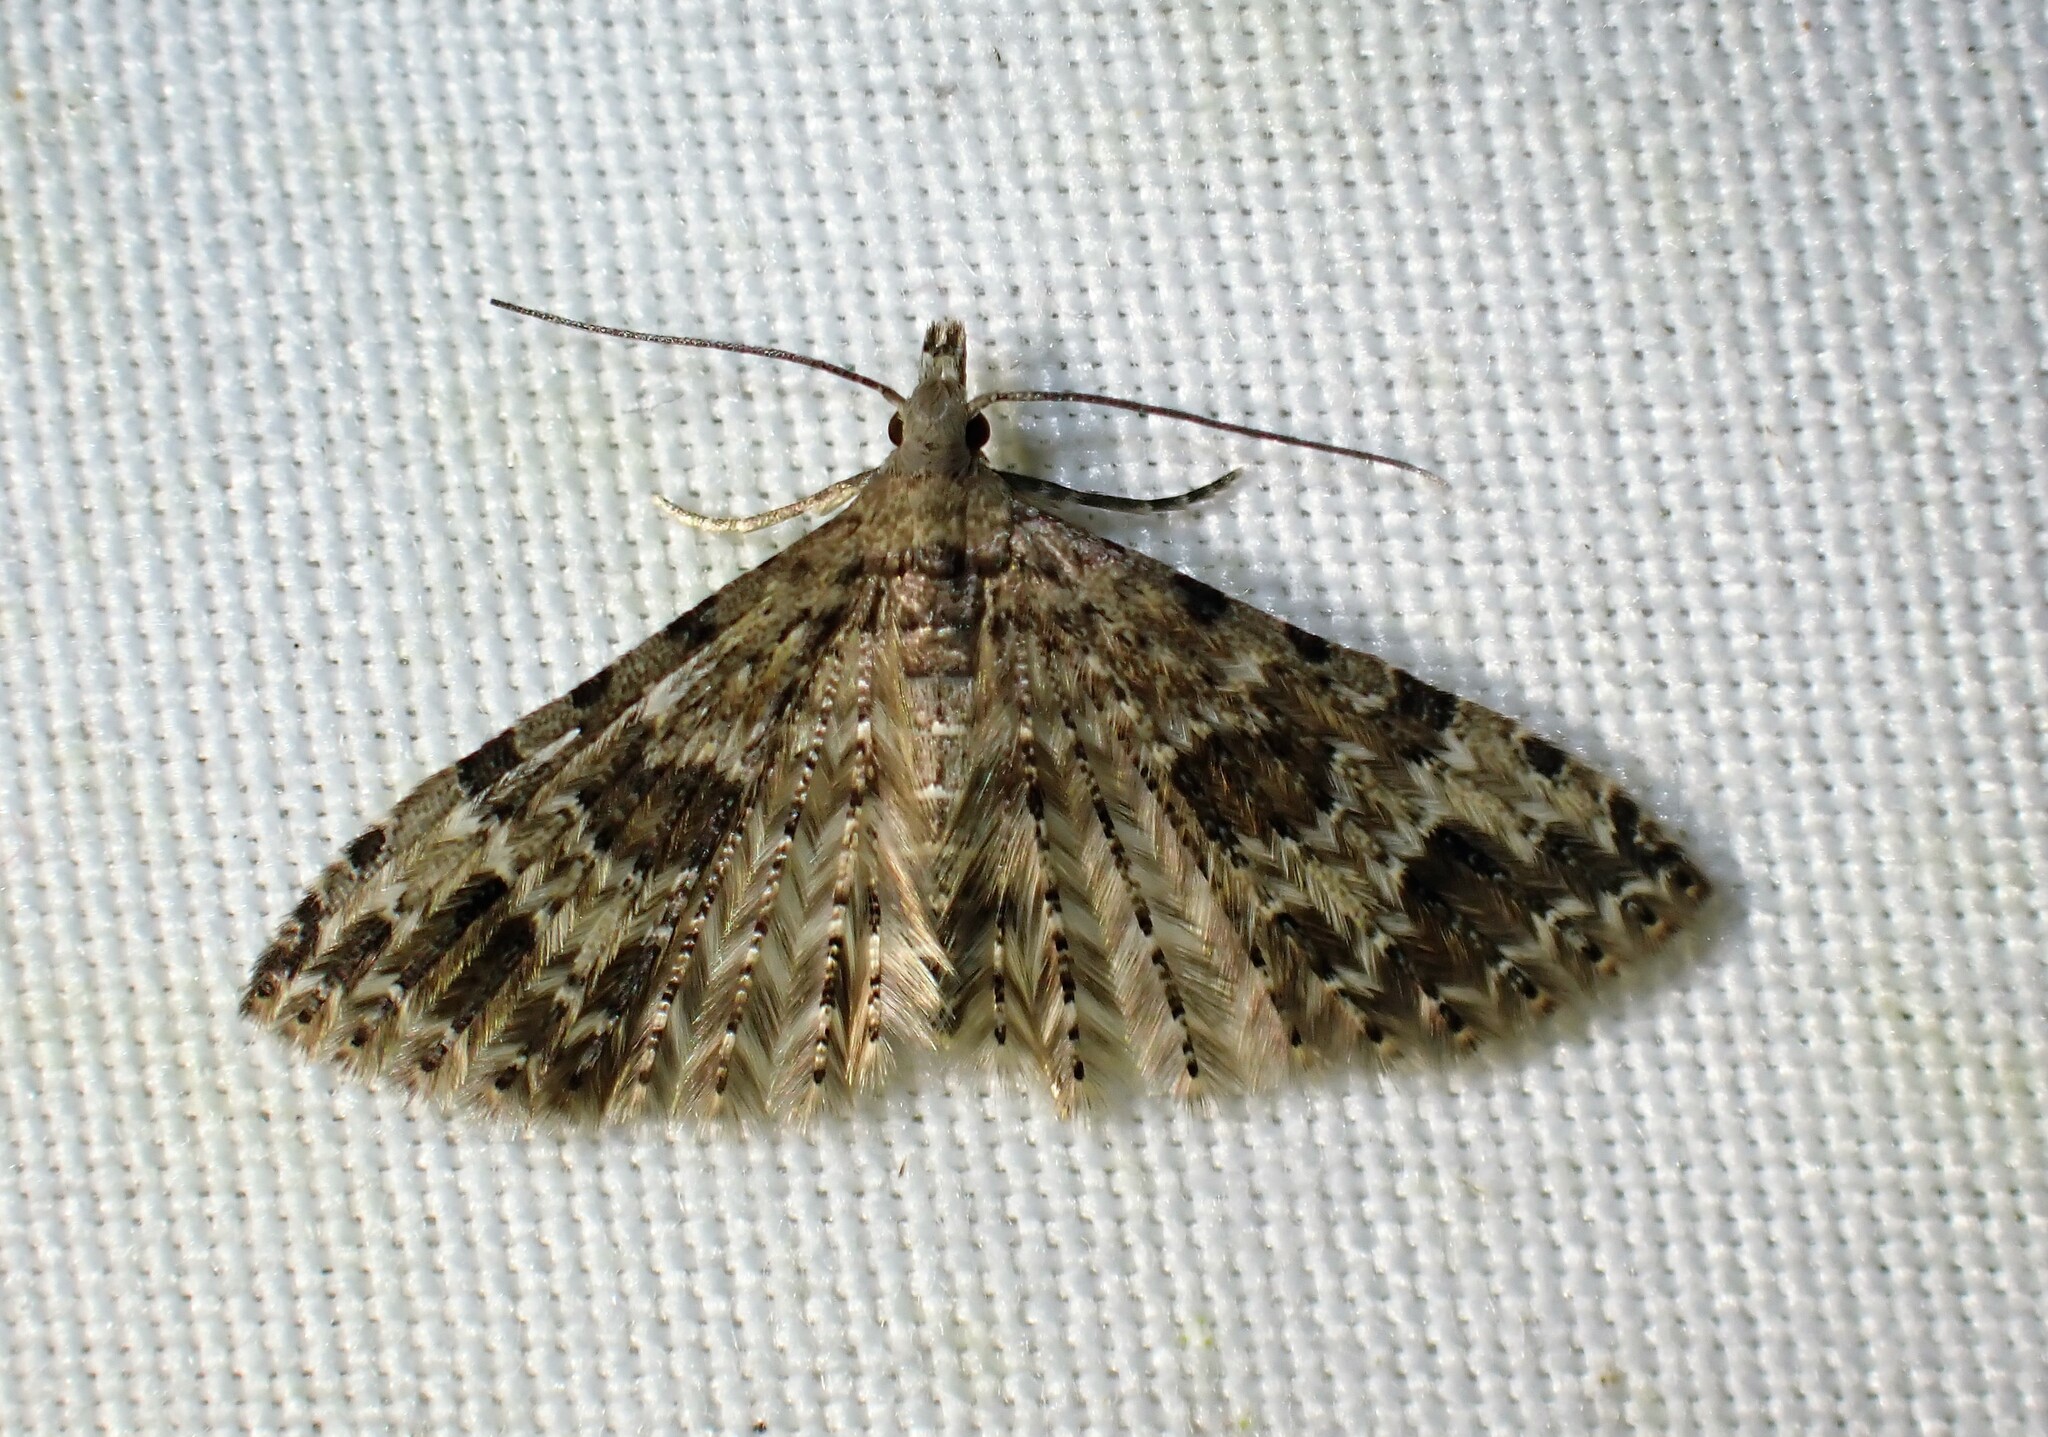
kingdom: Animalia
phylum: Arthropoda
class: Insecta
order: Lepidoptera
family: Alucitidae
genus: Alucita
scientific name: Alucita adriendenisi
